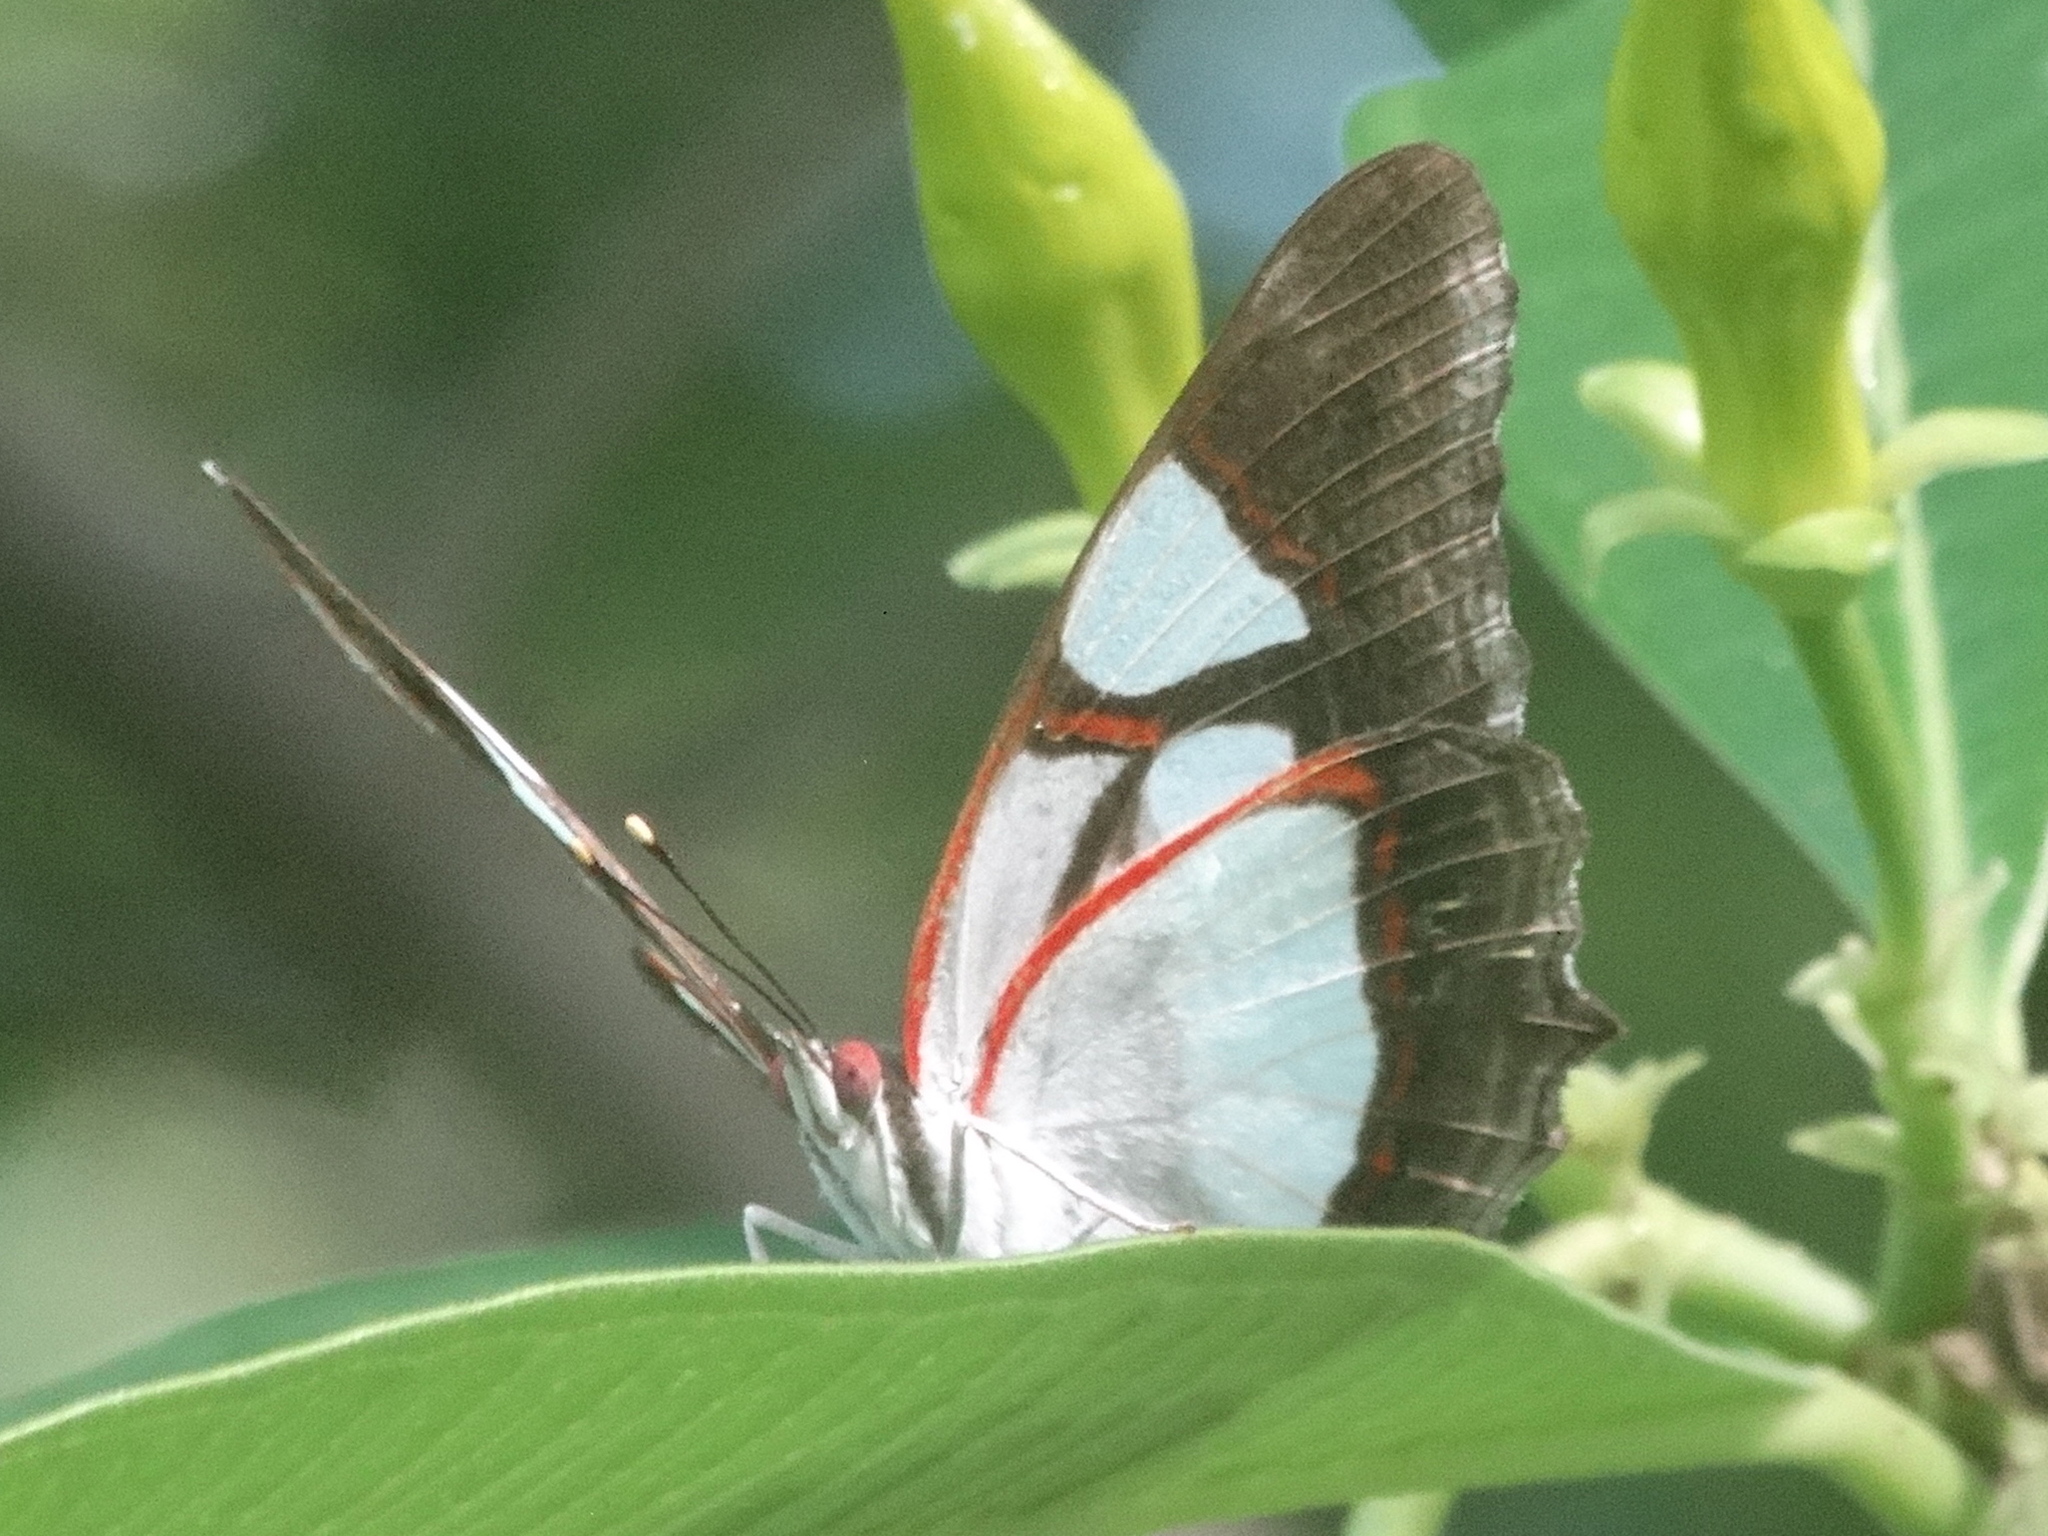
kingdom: Animalia
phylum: Arthropoda
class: Insecta
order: Lepidoptera
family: Nymphalidae
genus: Pyrrhogyra
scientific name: Pyrrhogyra neaerea
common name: Leading red-ring
